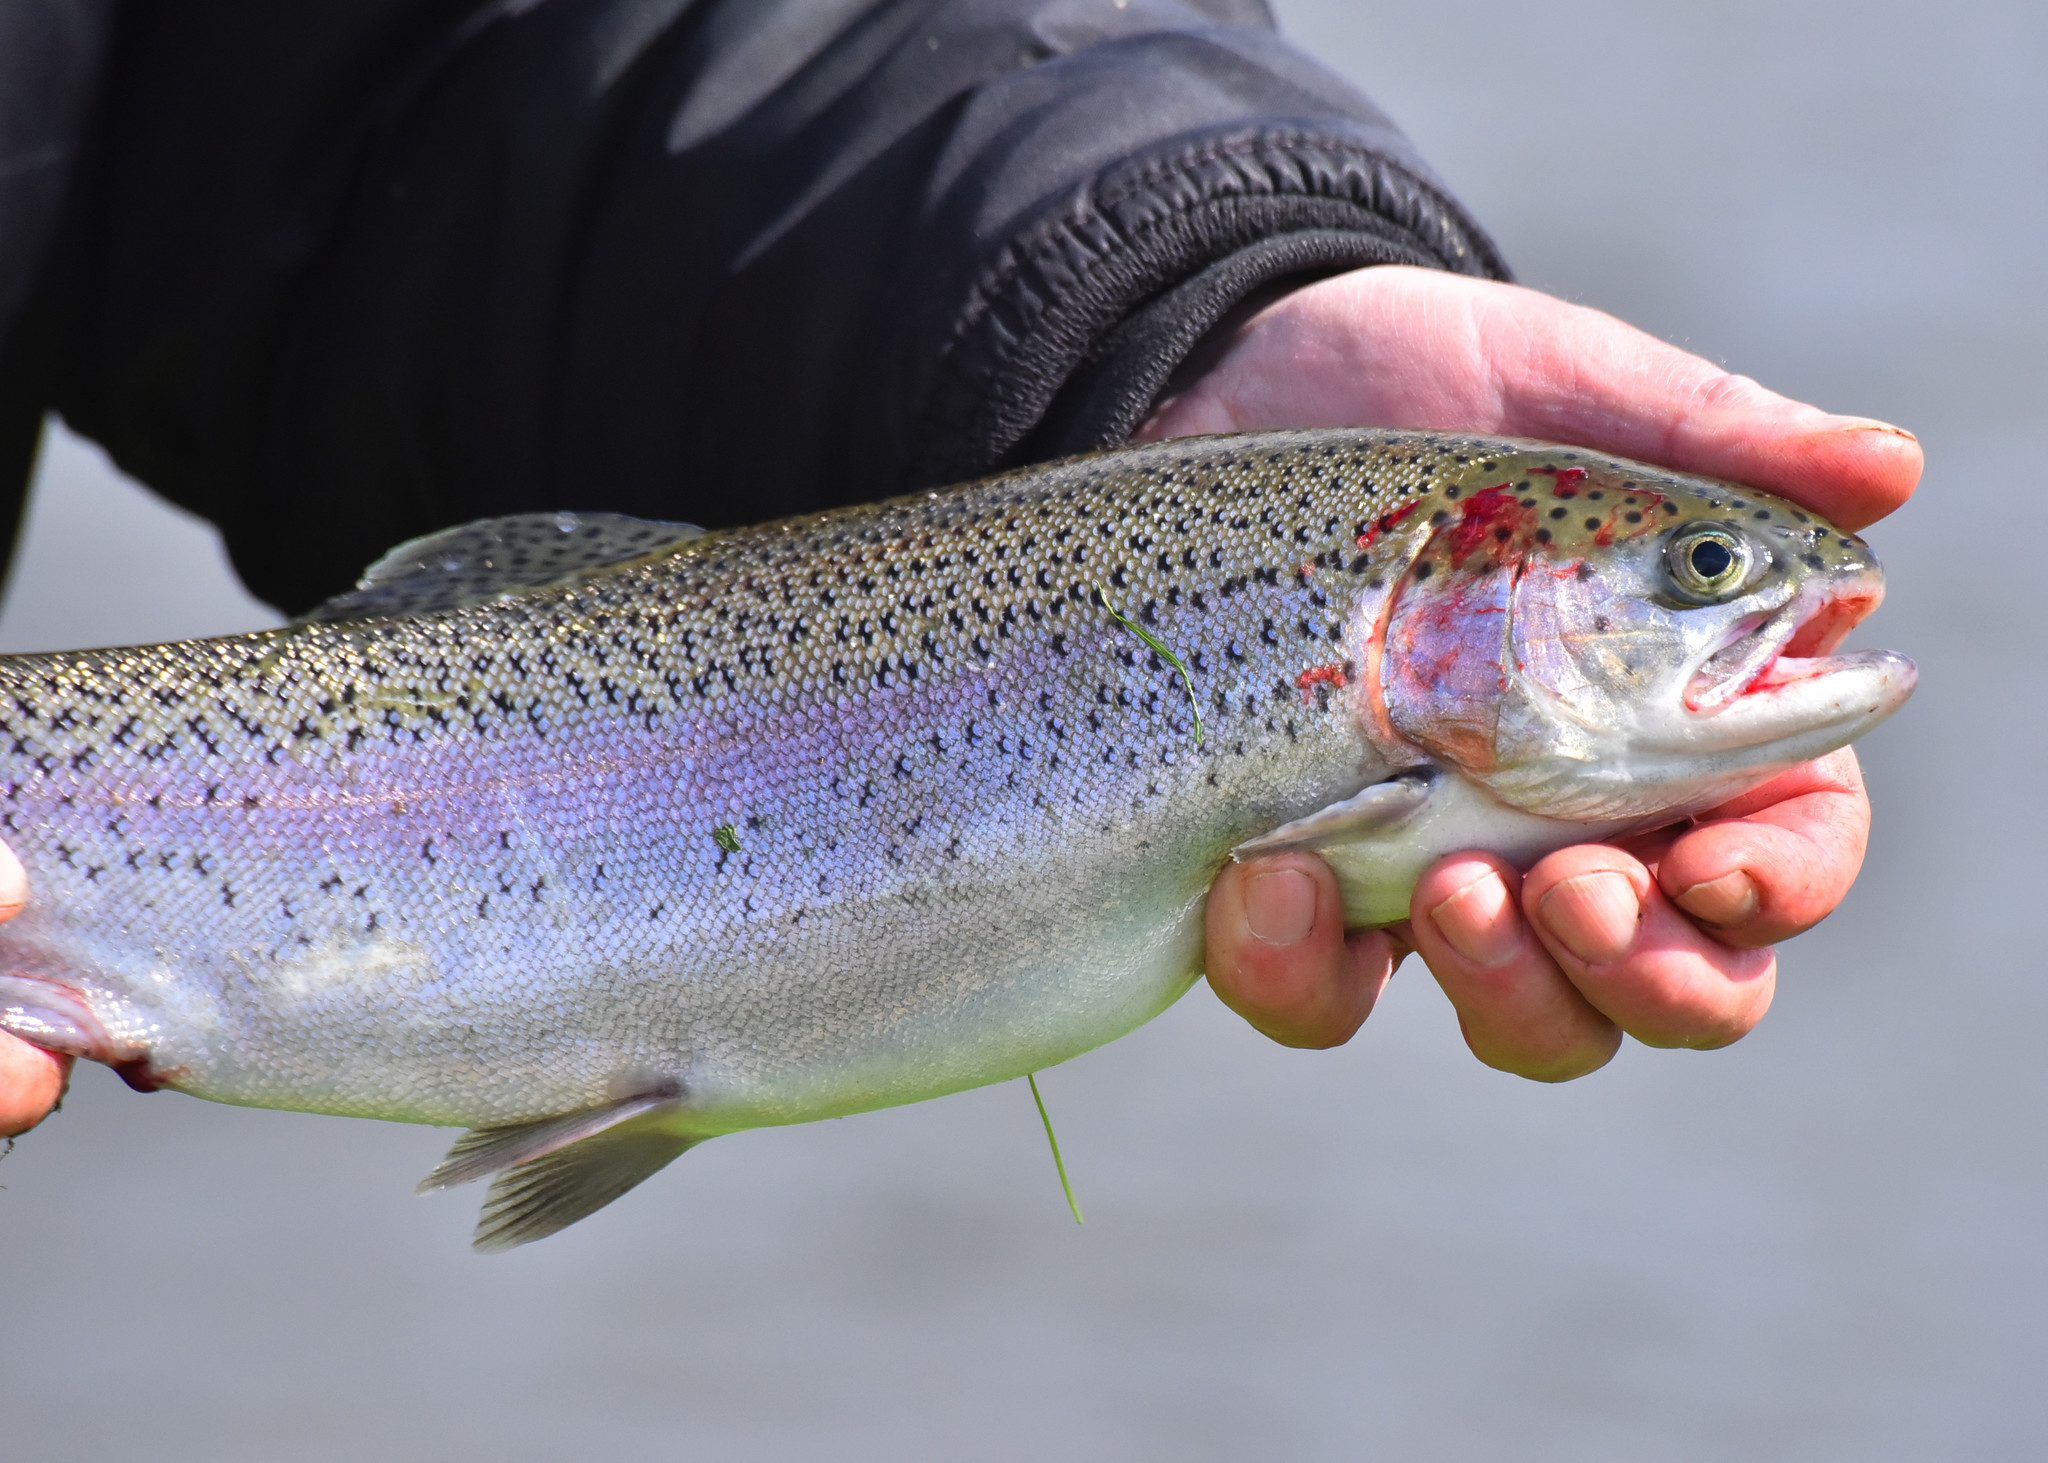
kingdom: Animalia
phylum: Chordata
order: Salmoniformes
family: Salmonidae
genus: Oncorhynchus
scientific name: Oncorhynchus mykiss
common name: Rainbow trout
